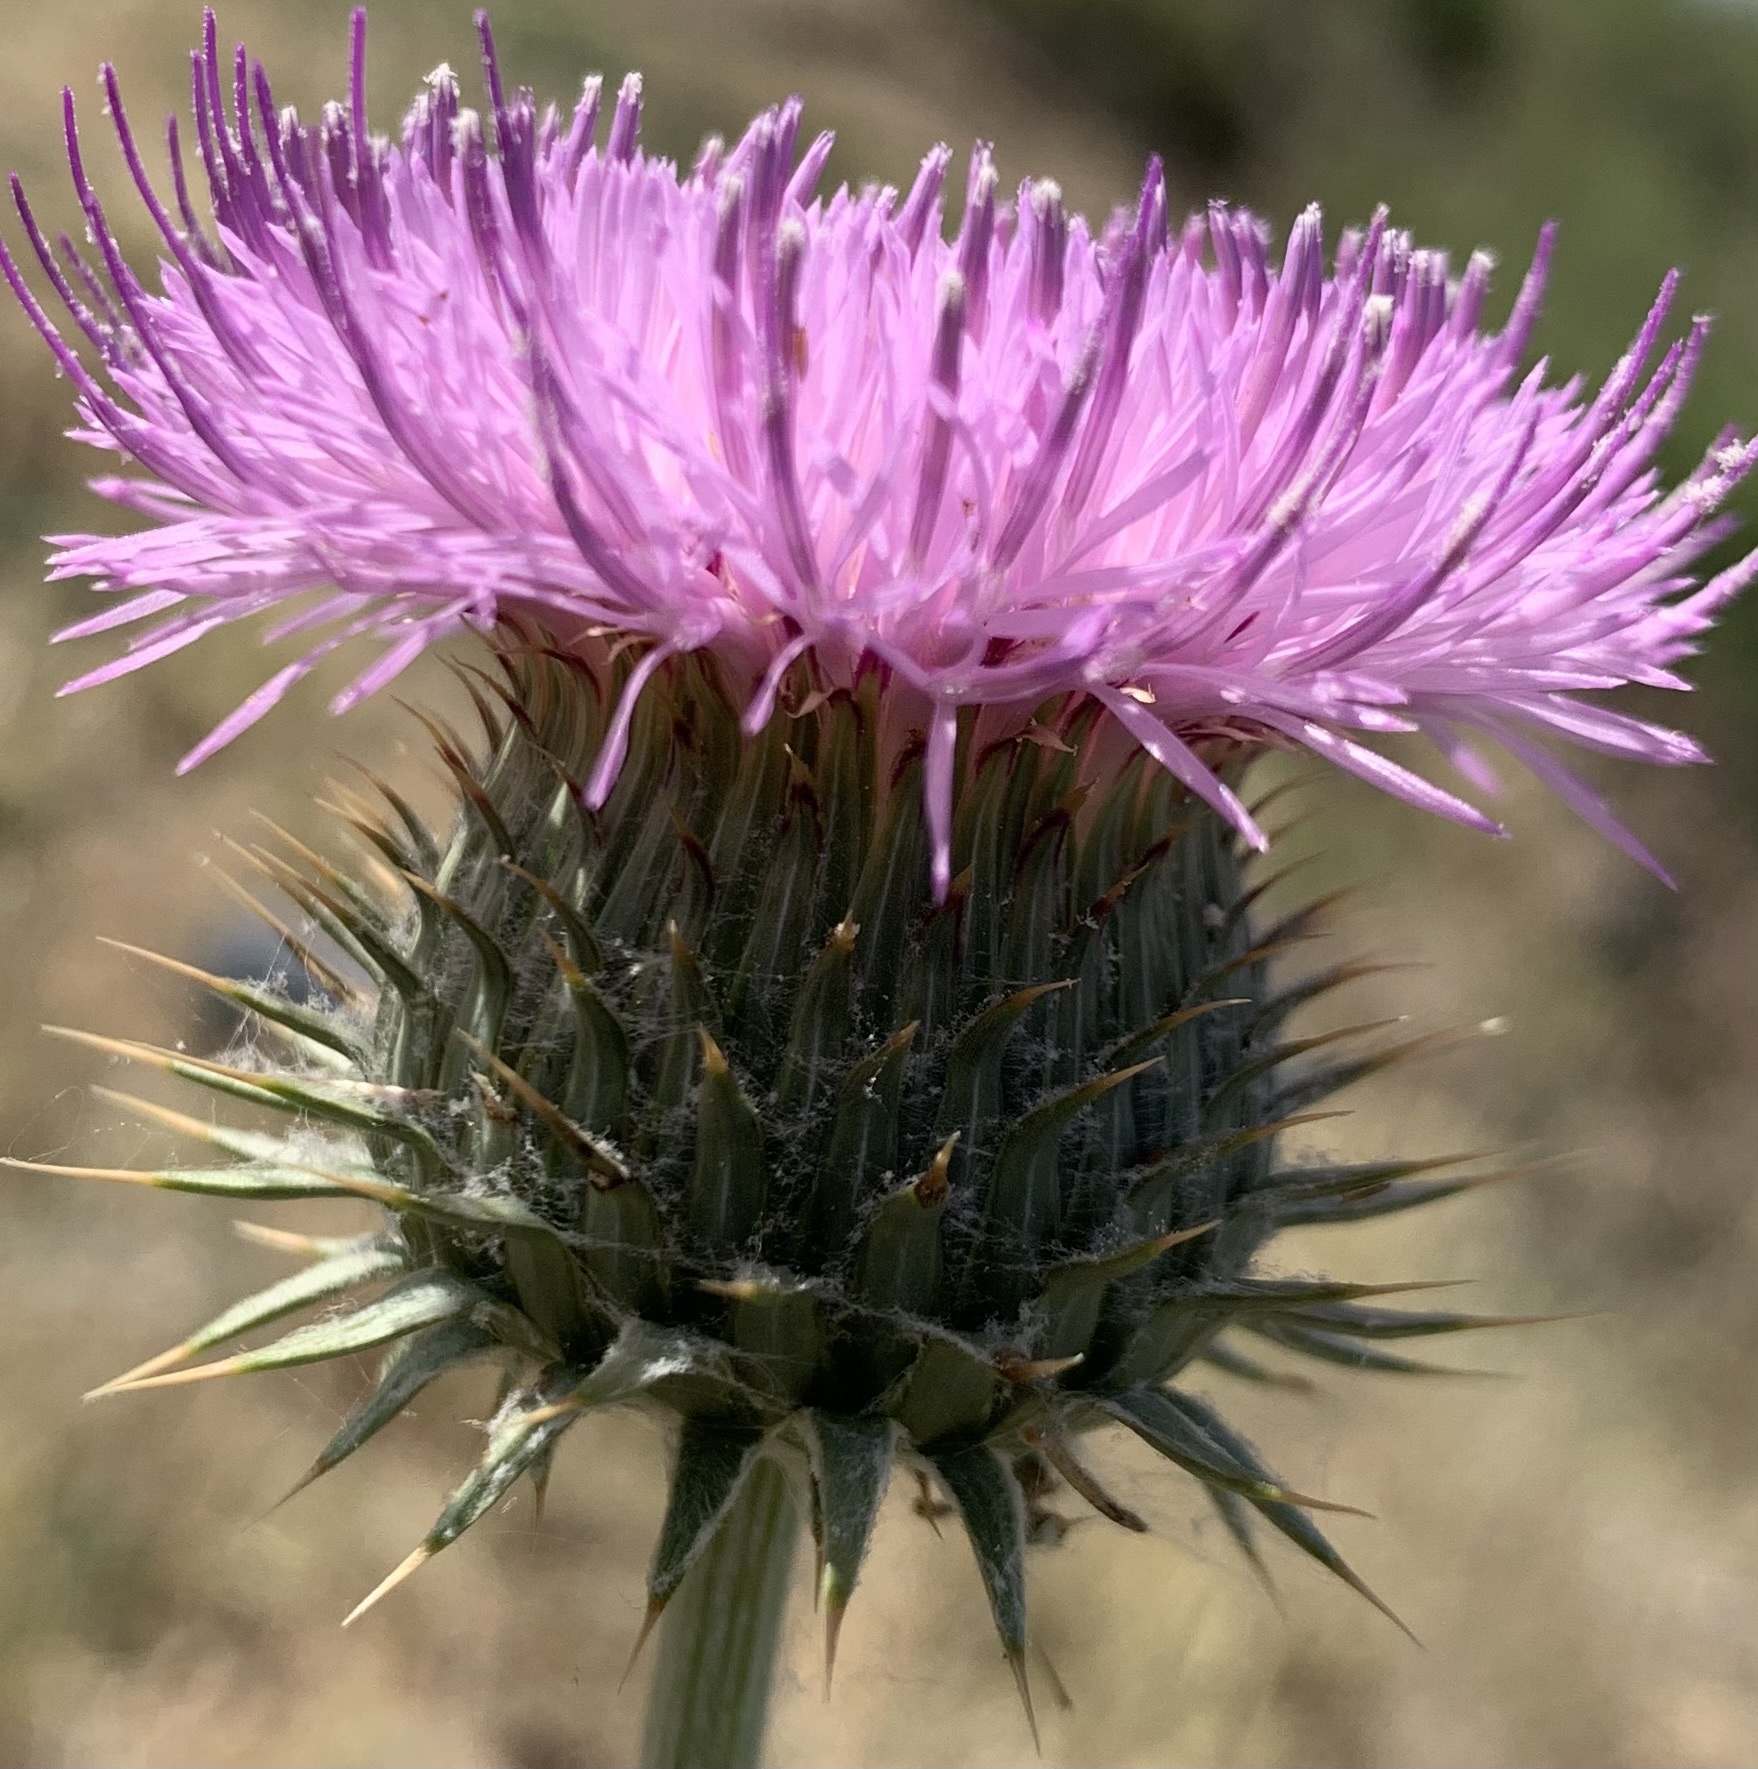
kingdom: Plantae
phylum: Tracheophyta
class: Magnoliopsida
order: Asterales
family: Asteraceae
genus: Cirsium
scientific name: Cirsium neomexicanum
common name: New mexico thistle
